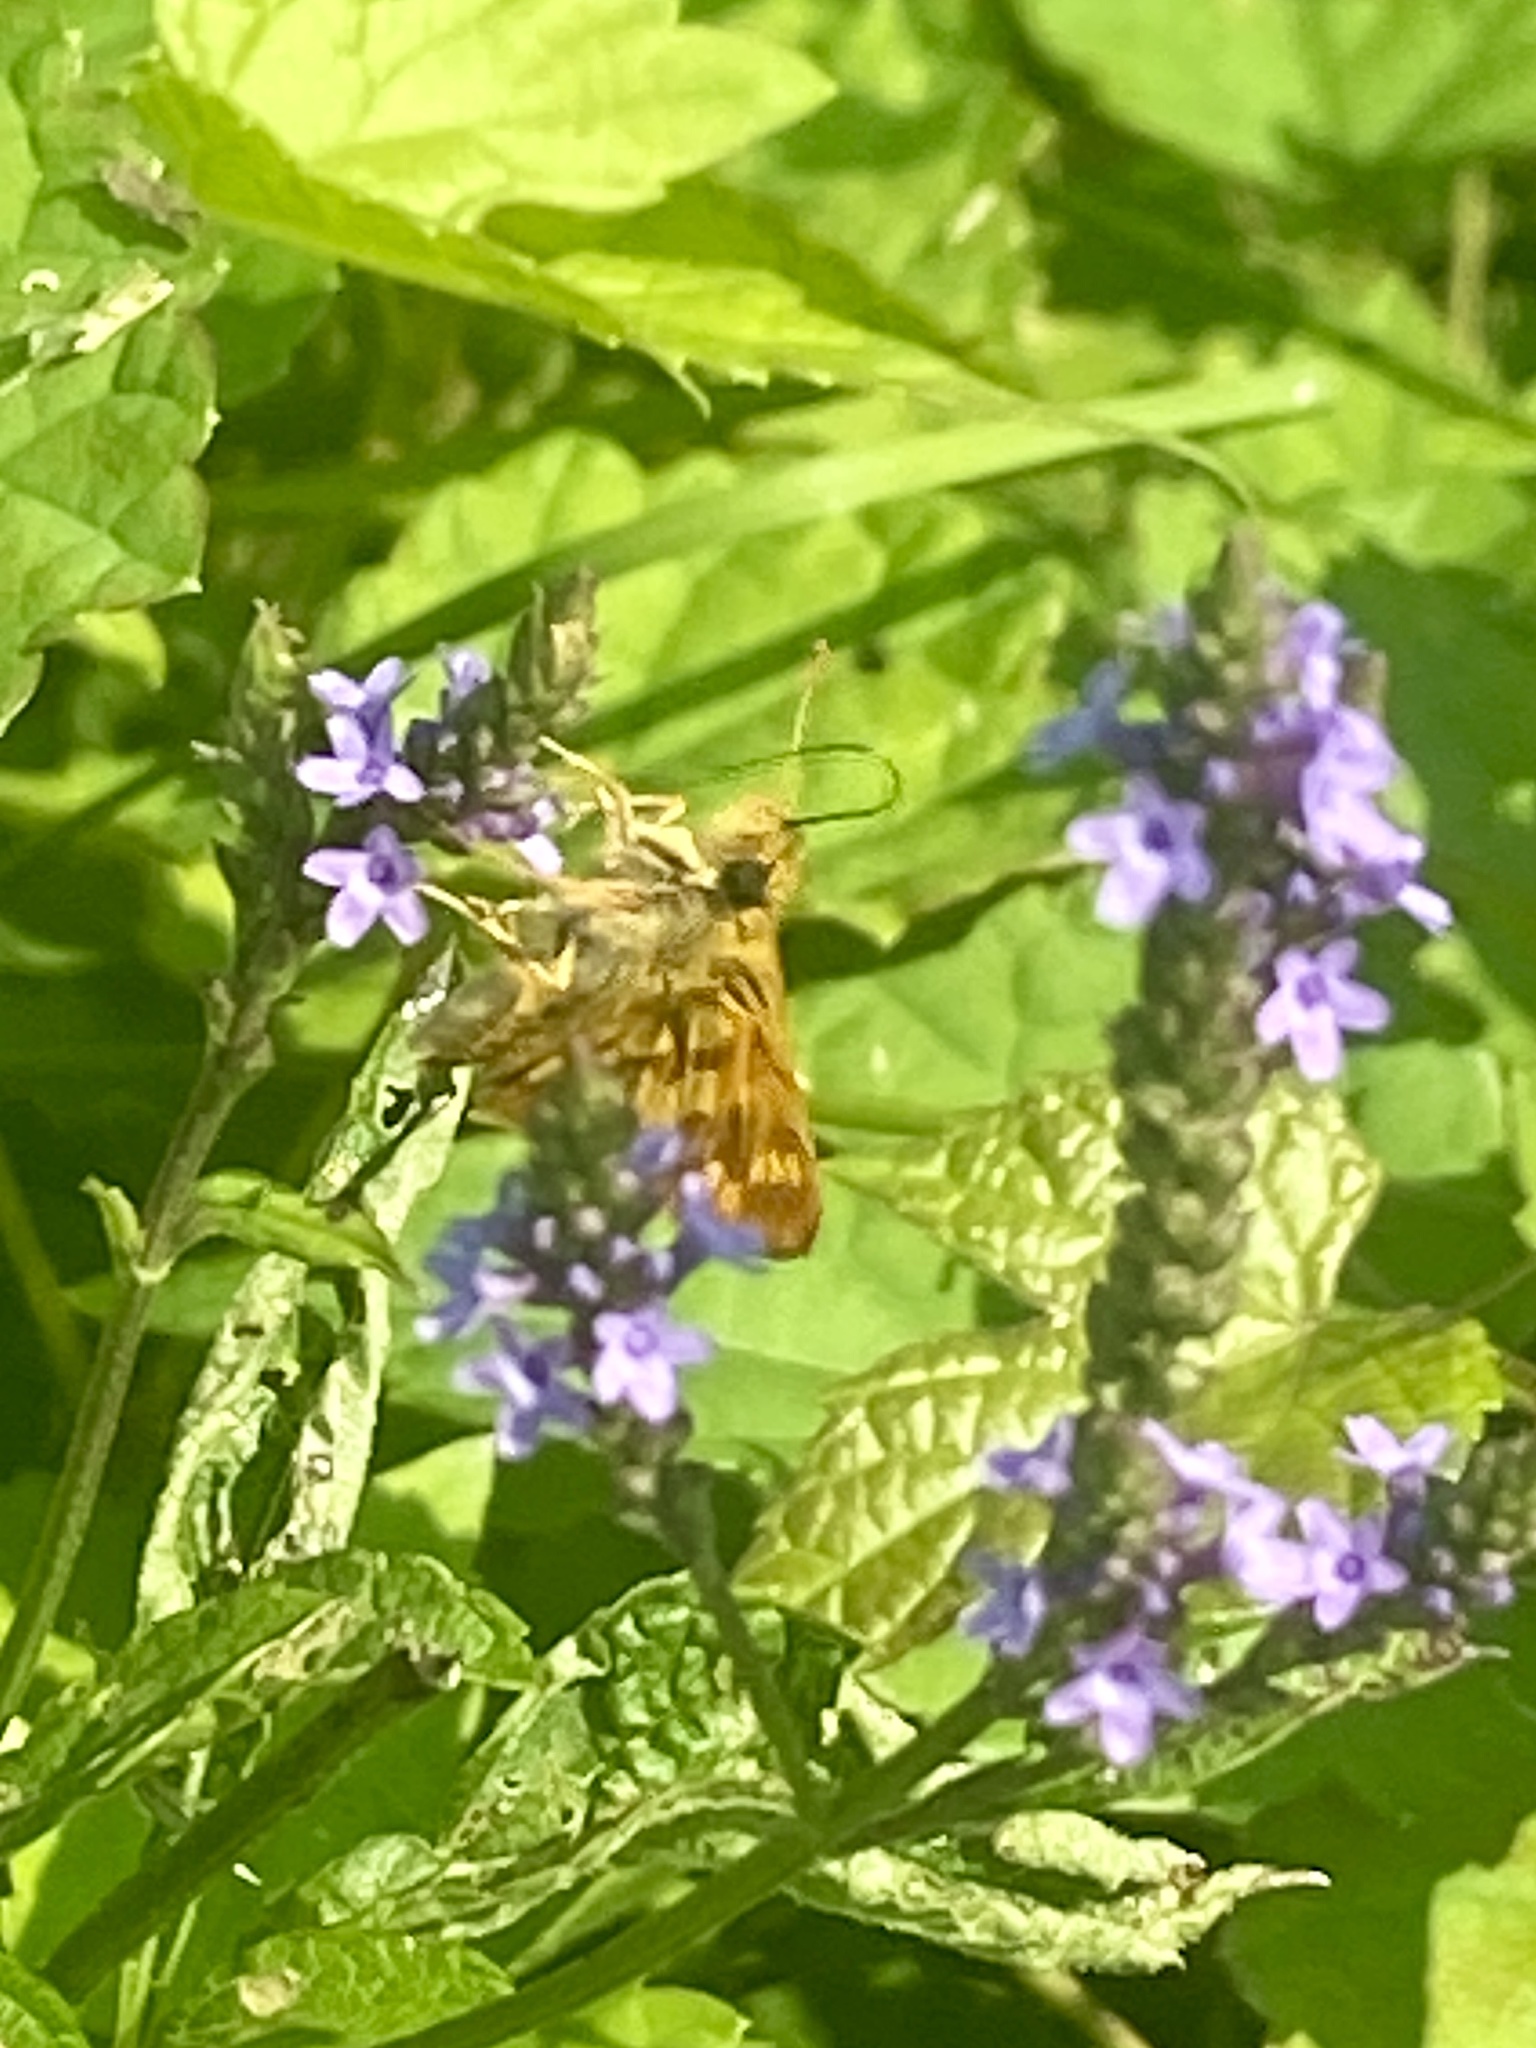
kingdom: Animalia
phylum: Arthropoda
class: Insecta
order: Lepidoptera
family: Hesperiidae
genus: Polites
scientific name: Polites coras
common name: Peck's skipper
